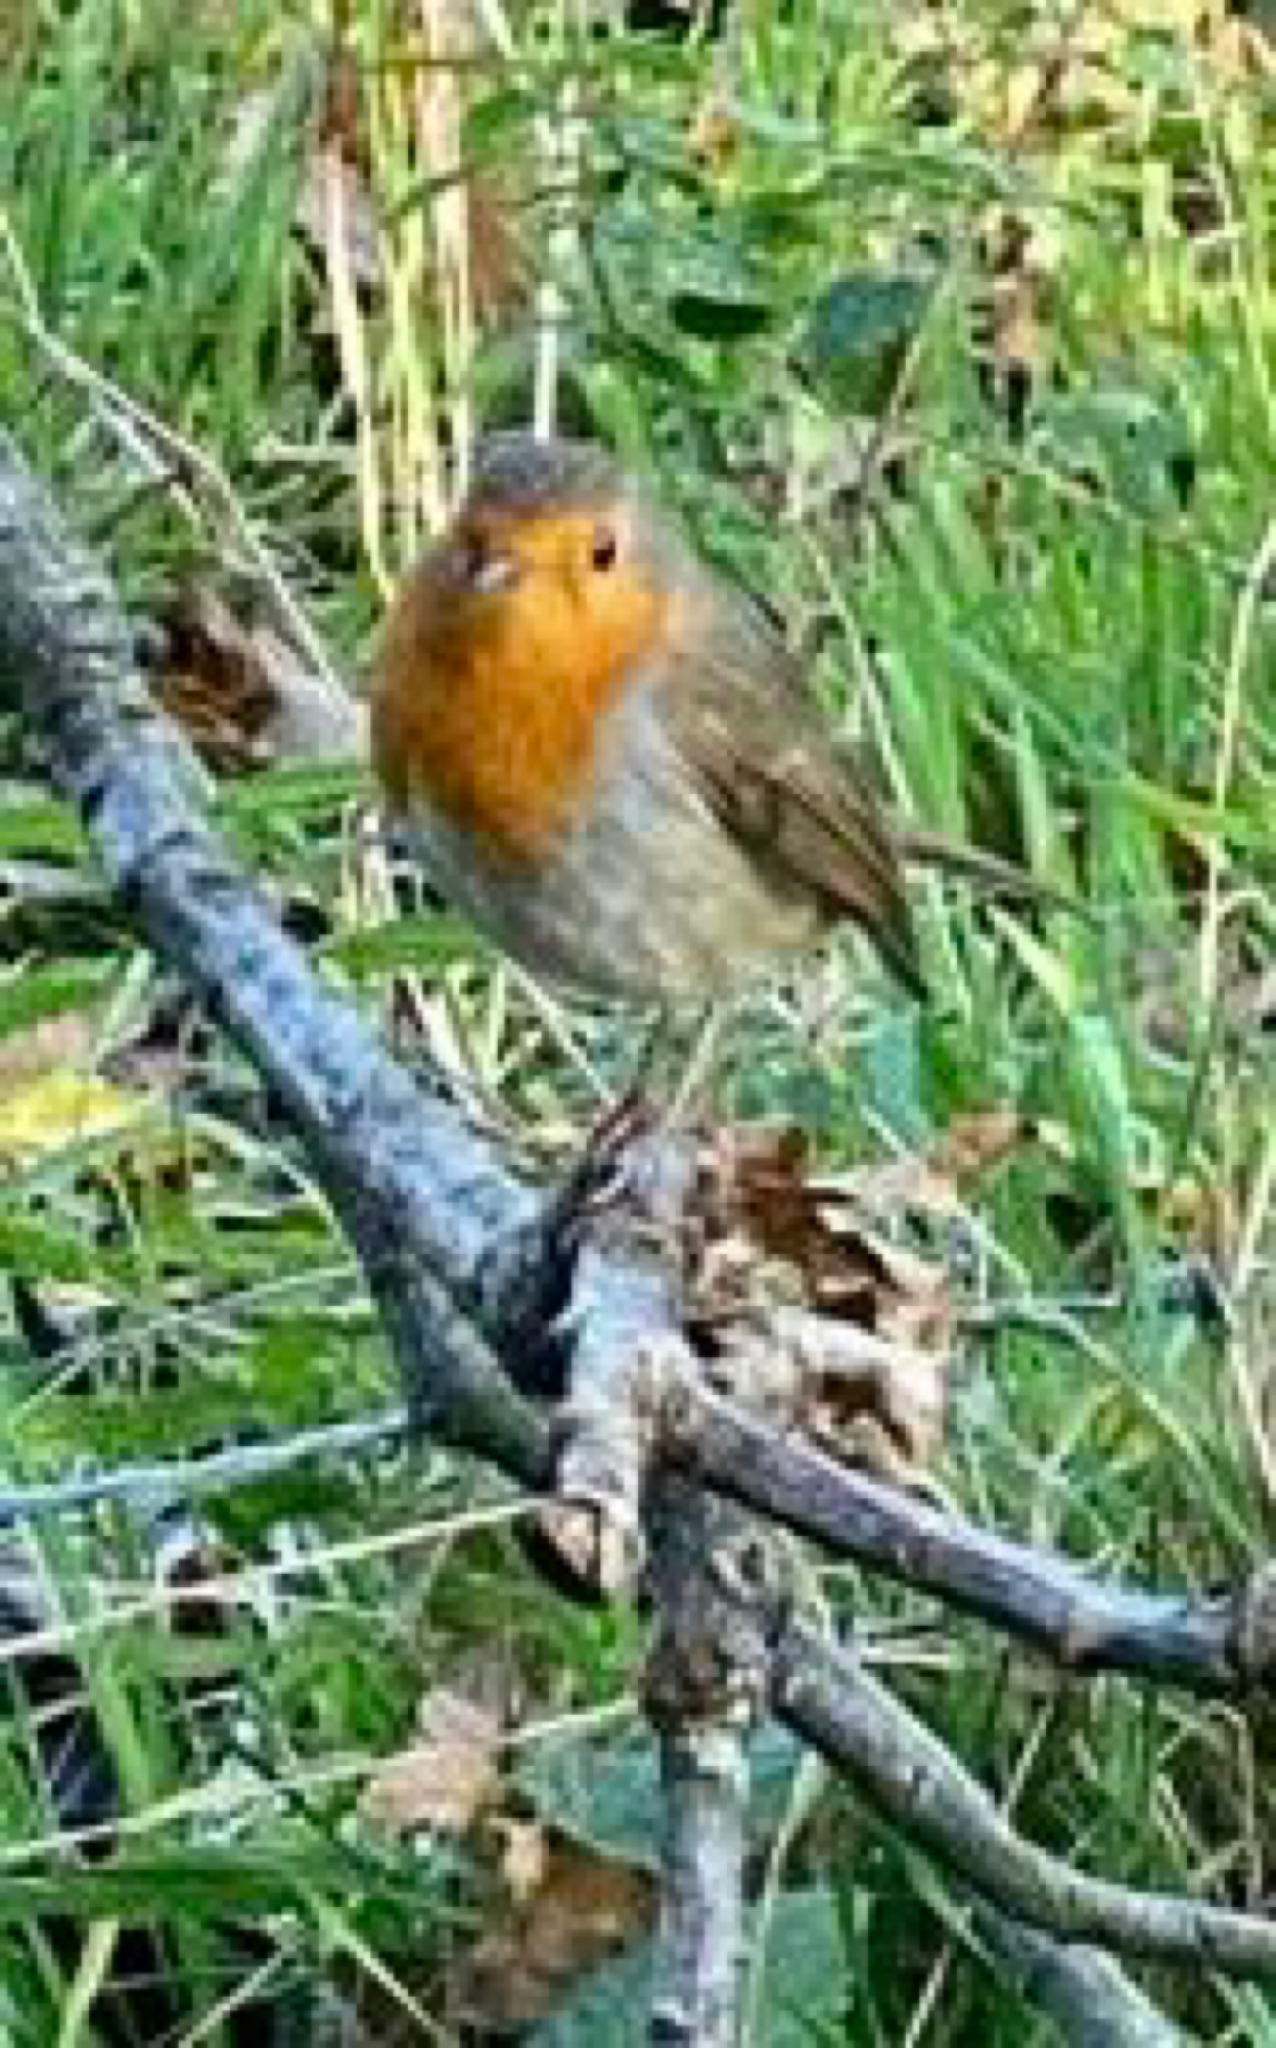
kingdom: Animalia
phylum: Chordata
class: Aves
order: Passeriformes
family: Muscicapidae
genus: Erithacus
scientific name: Erithacus rubecula
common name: European robin
